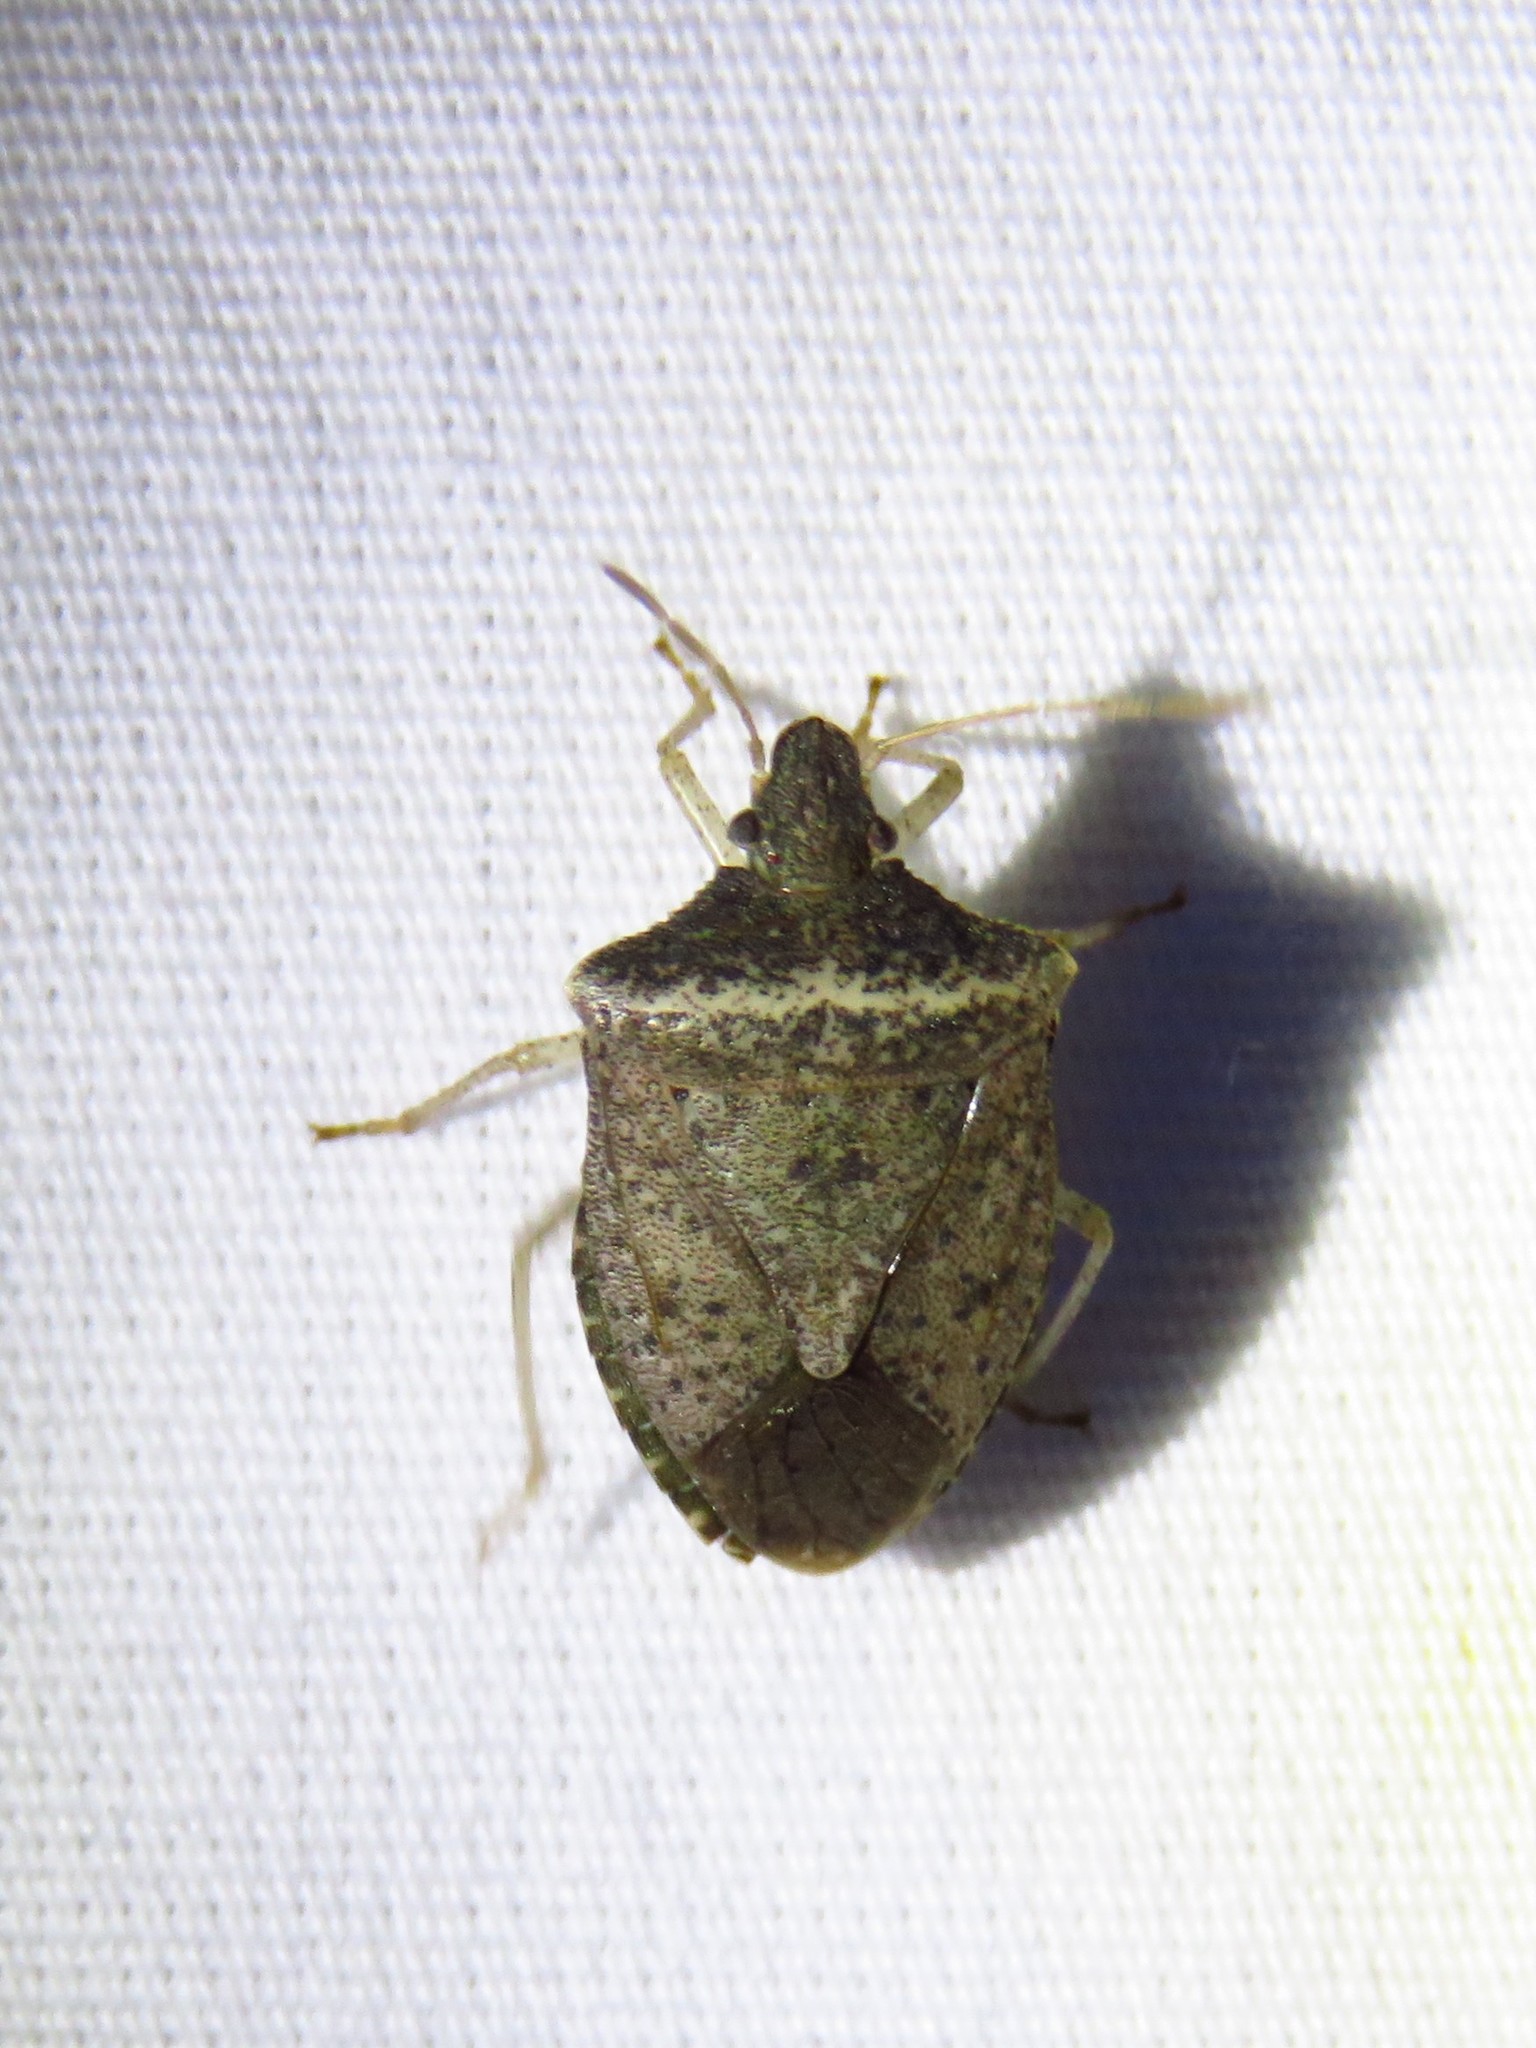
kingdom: Animalia
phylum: Arthropoda
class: Insecta
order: Hemiptera
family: Pentatomidae
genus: Euschistus
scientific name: Euschistus obscurus
